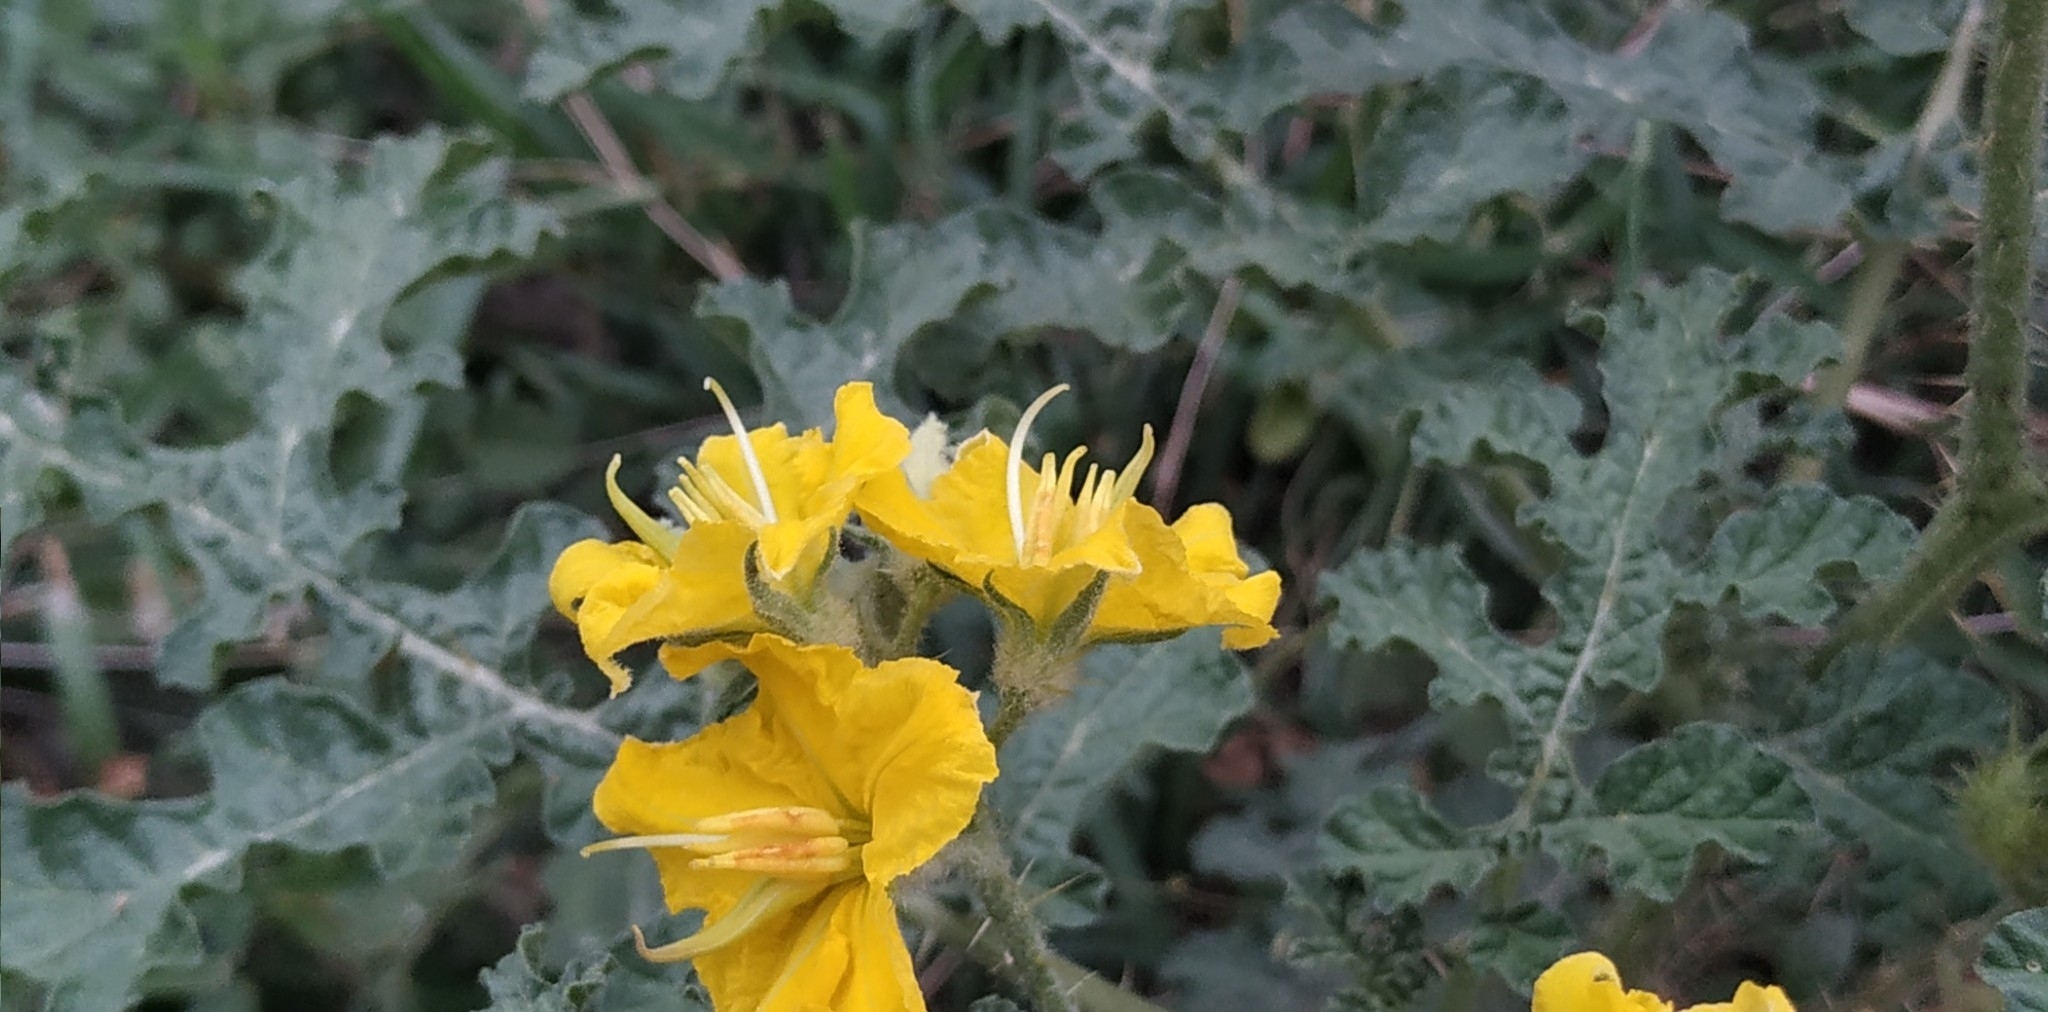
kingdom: Plantae
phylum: Tracheophyta
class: Magnoliopsida
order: Solanales
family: Solanaceae
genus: Solanum
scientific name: Solanum angustifolium
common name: Buffalobur nightshade
